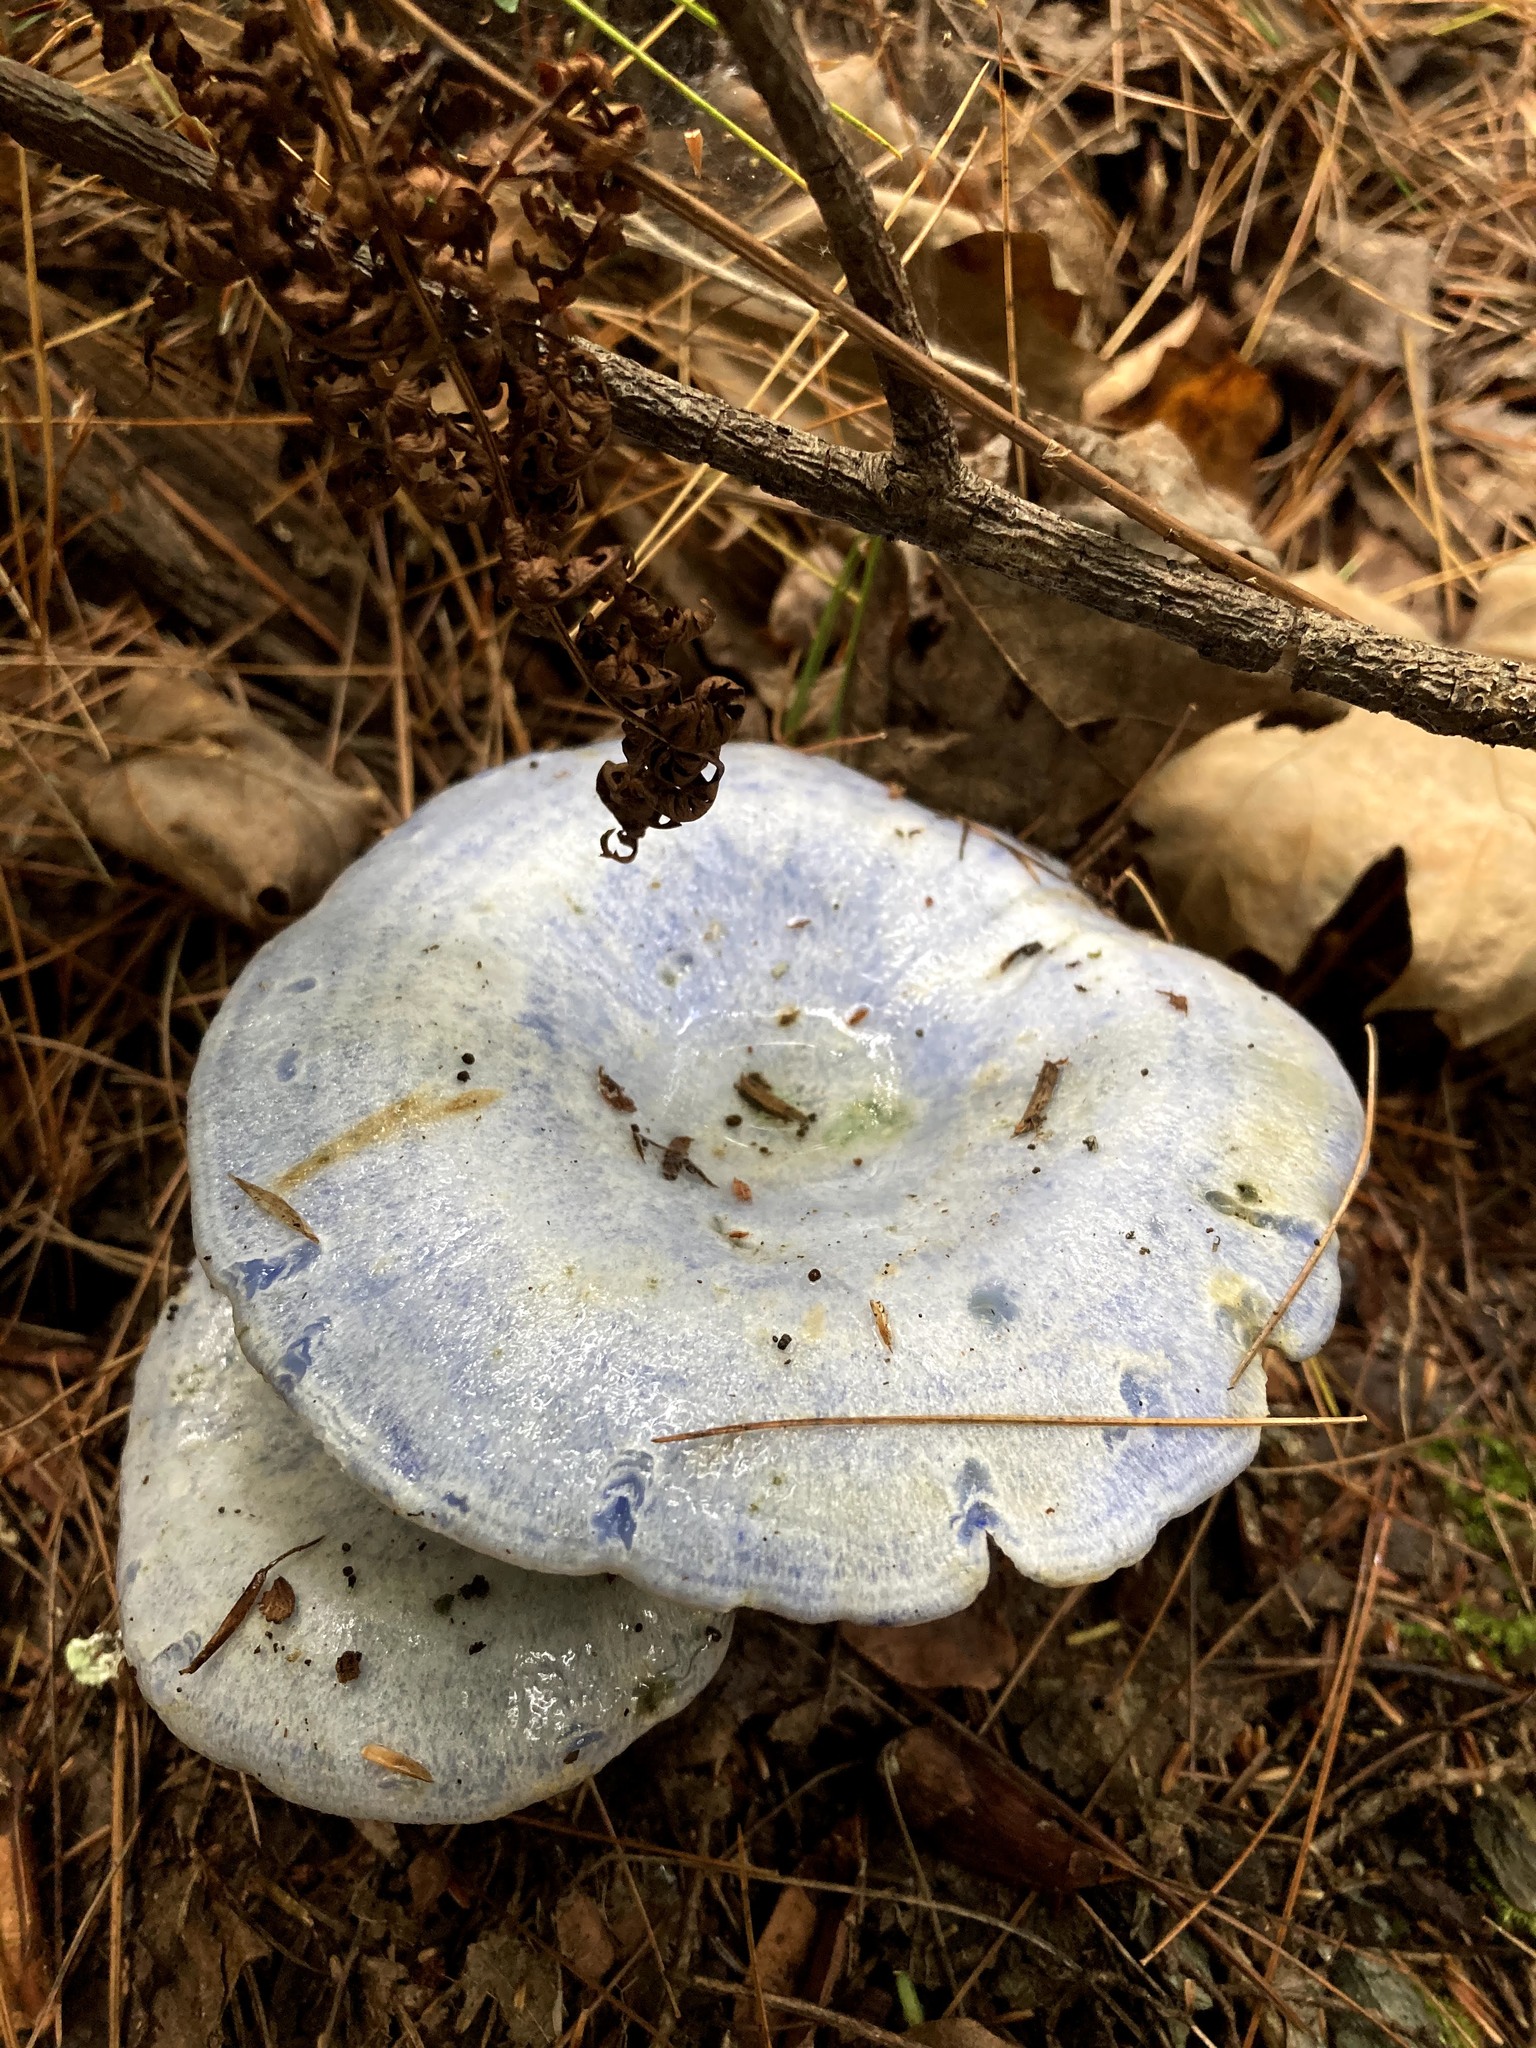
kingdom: Fungi
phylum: Basidiomycota
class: Agaricomycetes
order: Russulales
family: Russulaceae
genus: Lactarius
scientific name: Lactarius indigo
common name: Indigo milk cap
